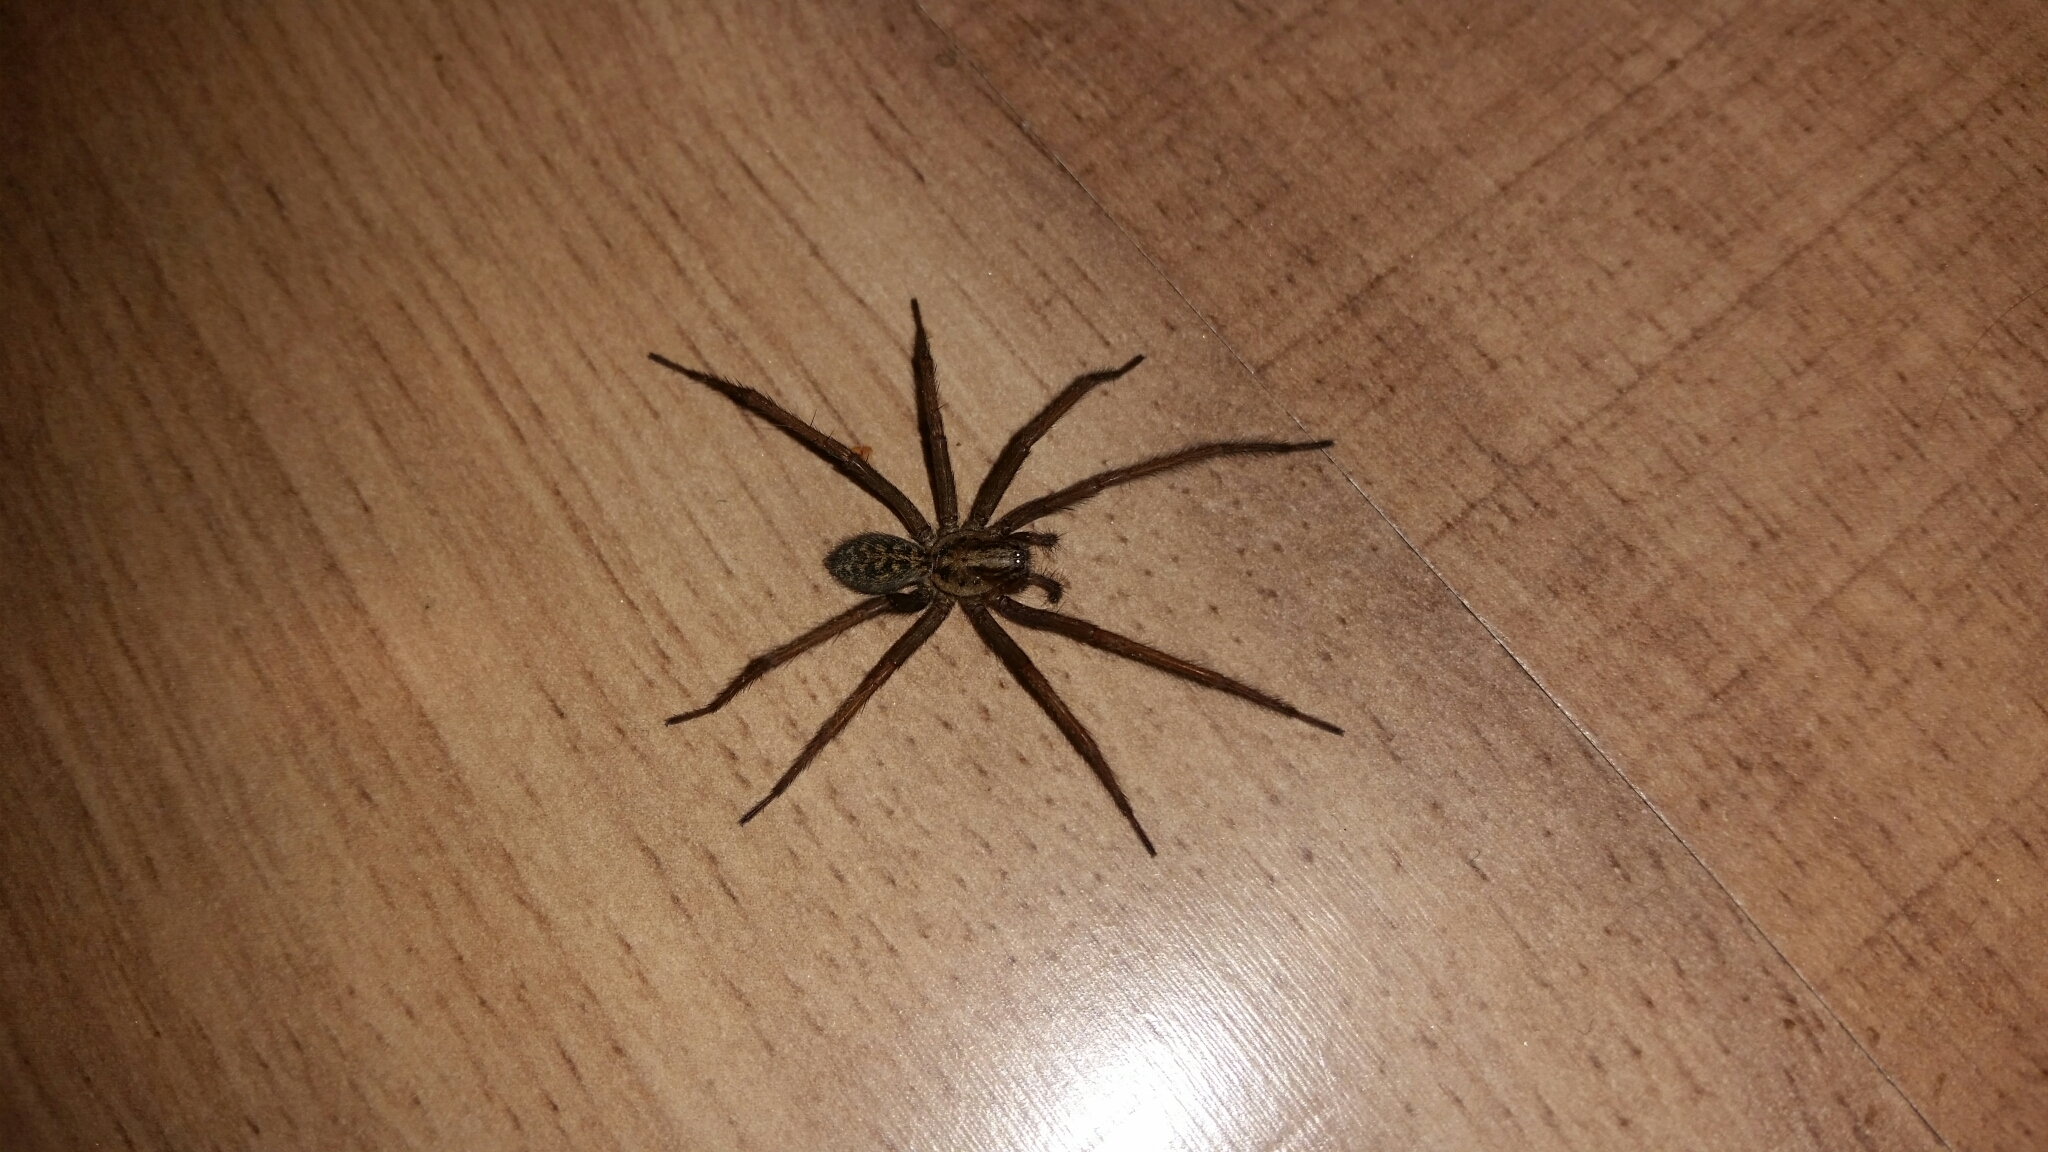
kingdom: Animalia
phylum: Arthropoda
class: Arachnida
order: Araneae
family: Agelenidae
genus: Eratigena
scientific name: Eratigena duellica
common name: Giant house spider
